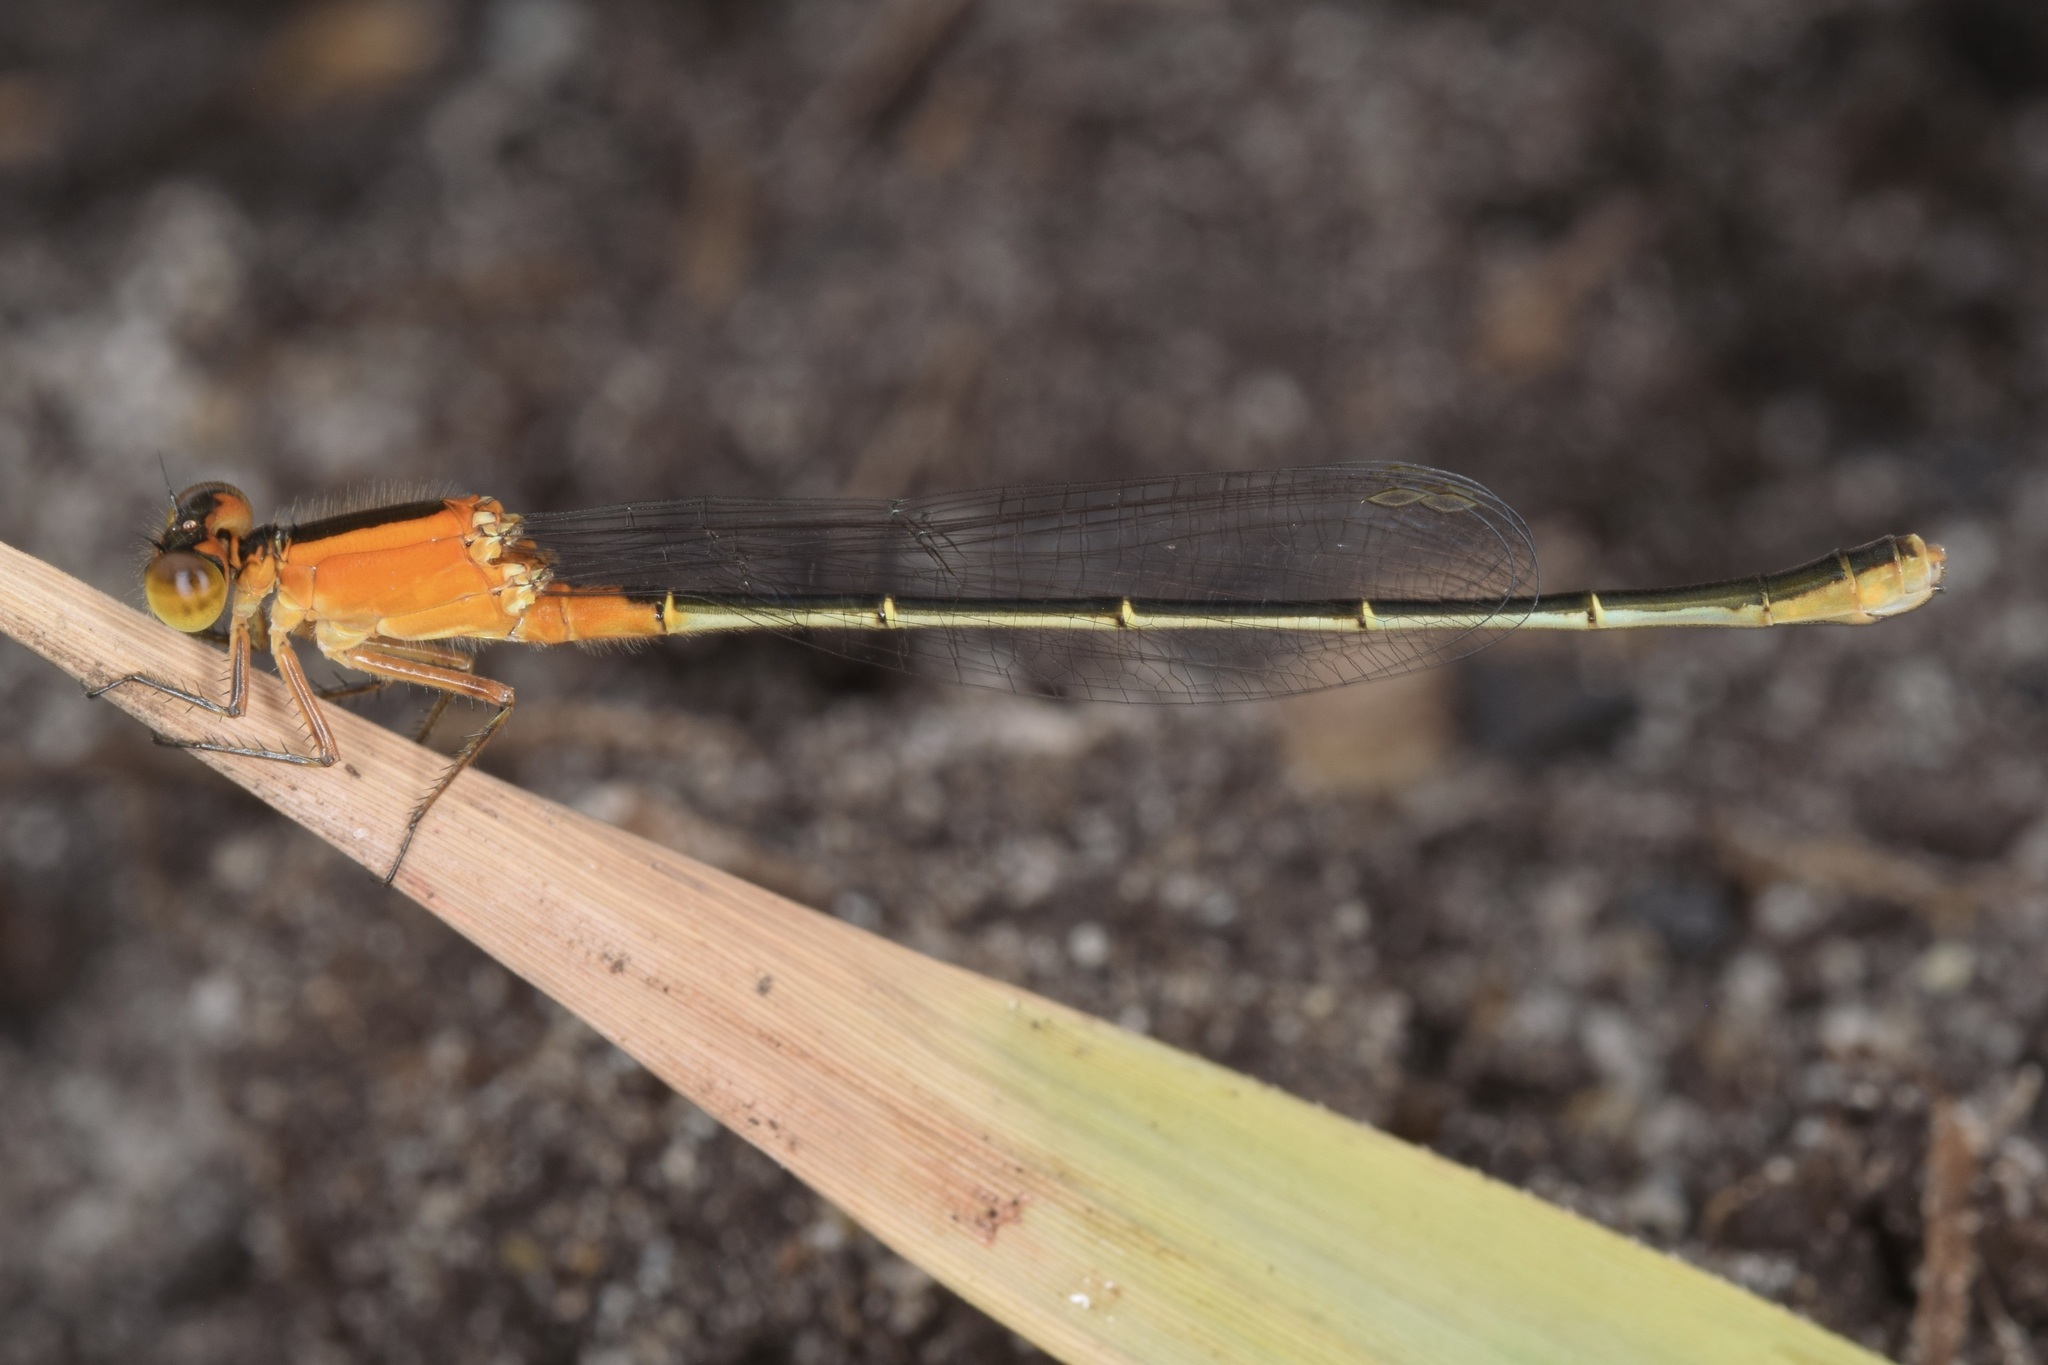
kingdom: Animalia
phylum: Arthropoda
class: Insecta
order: Odonata
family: Coenagrionidae
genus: Ischnura
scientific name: Ischnura ramburii
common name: Rambur's forktail
